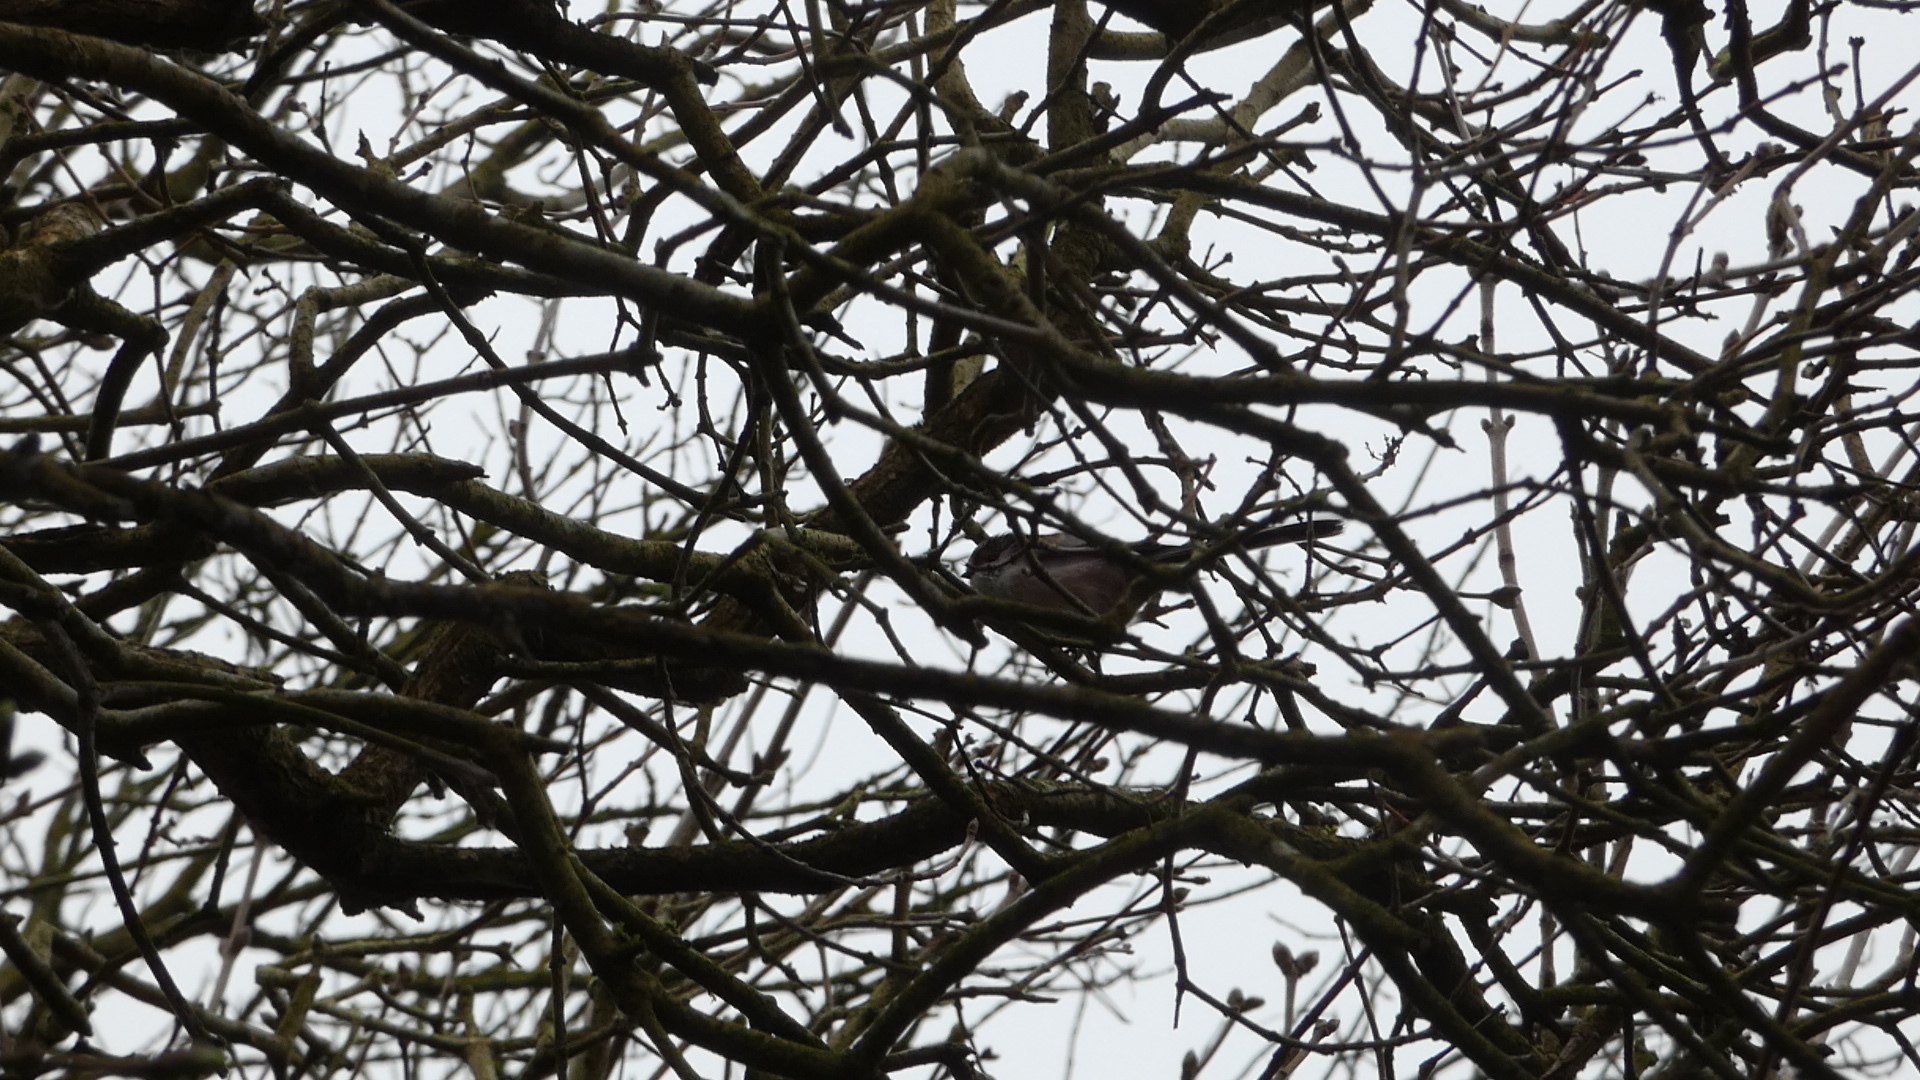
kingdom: Animalia
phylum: Chordata
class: Aves
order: Passeriformes
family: Aegithalidae
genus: Aegithalos
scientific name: Aegithalos caudatus
